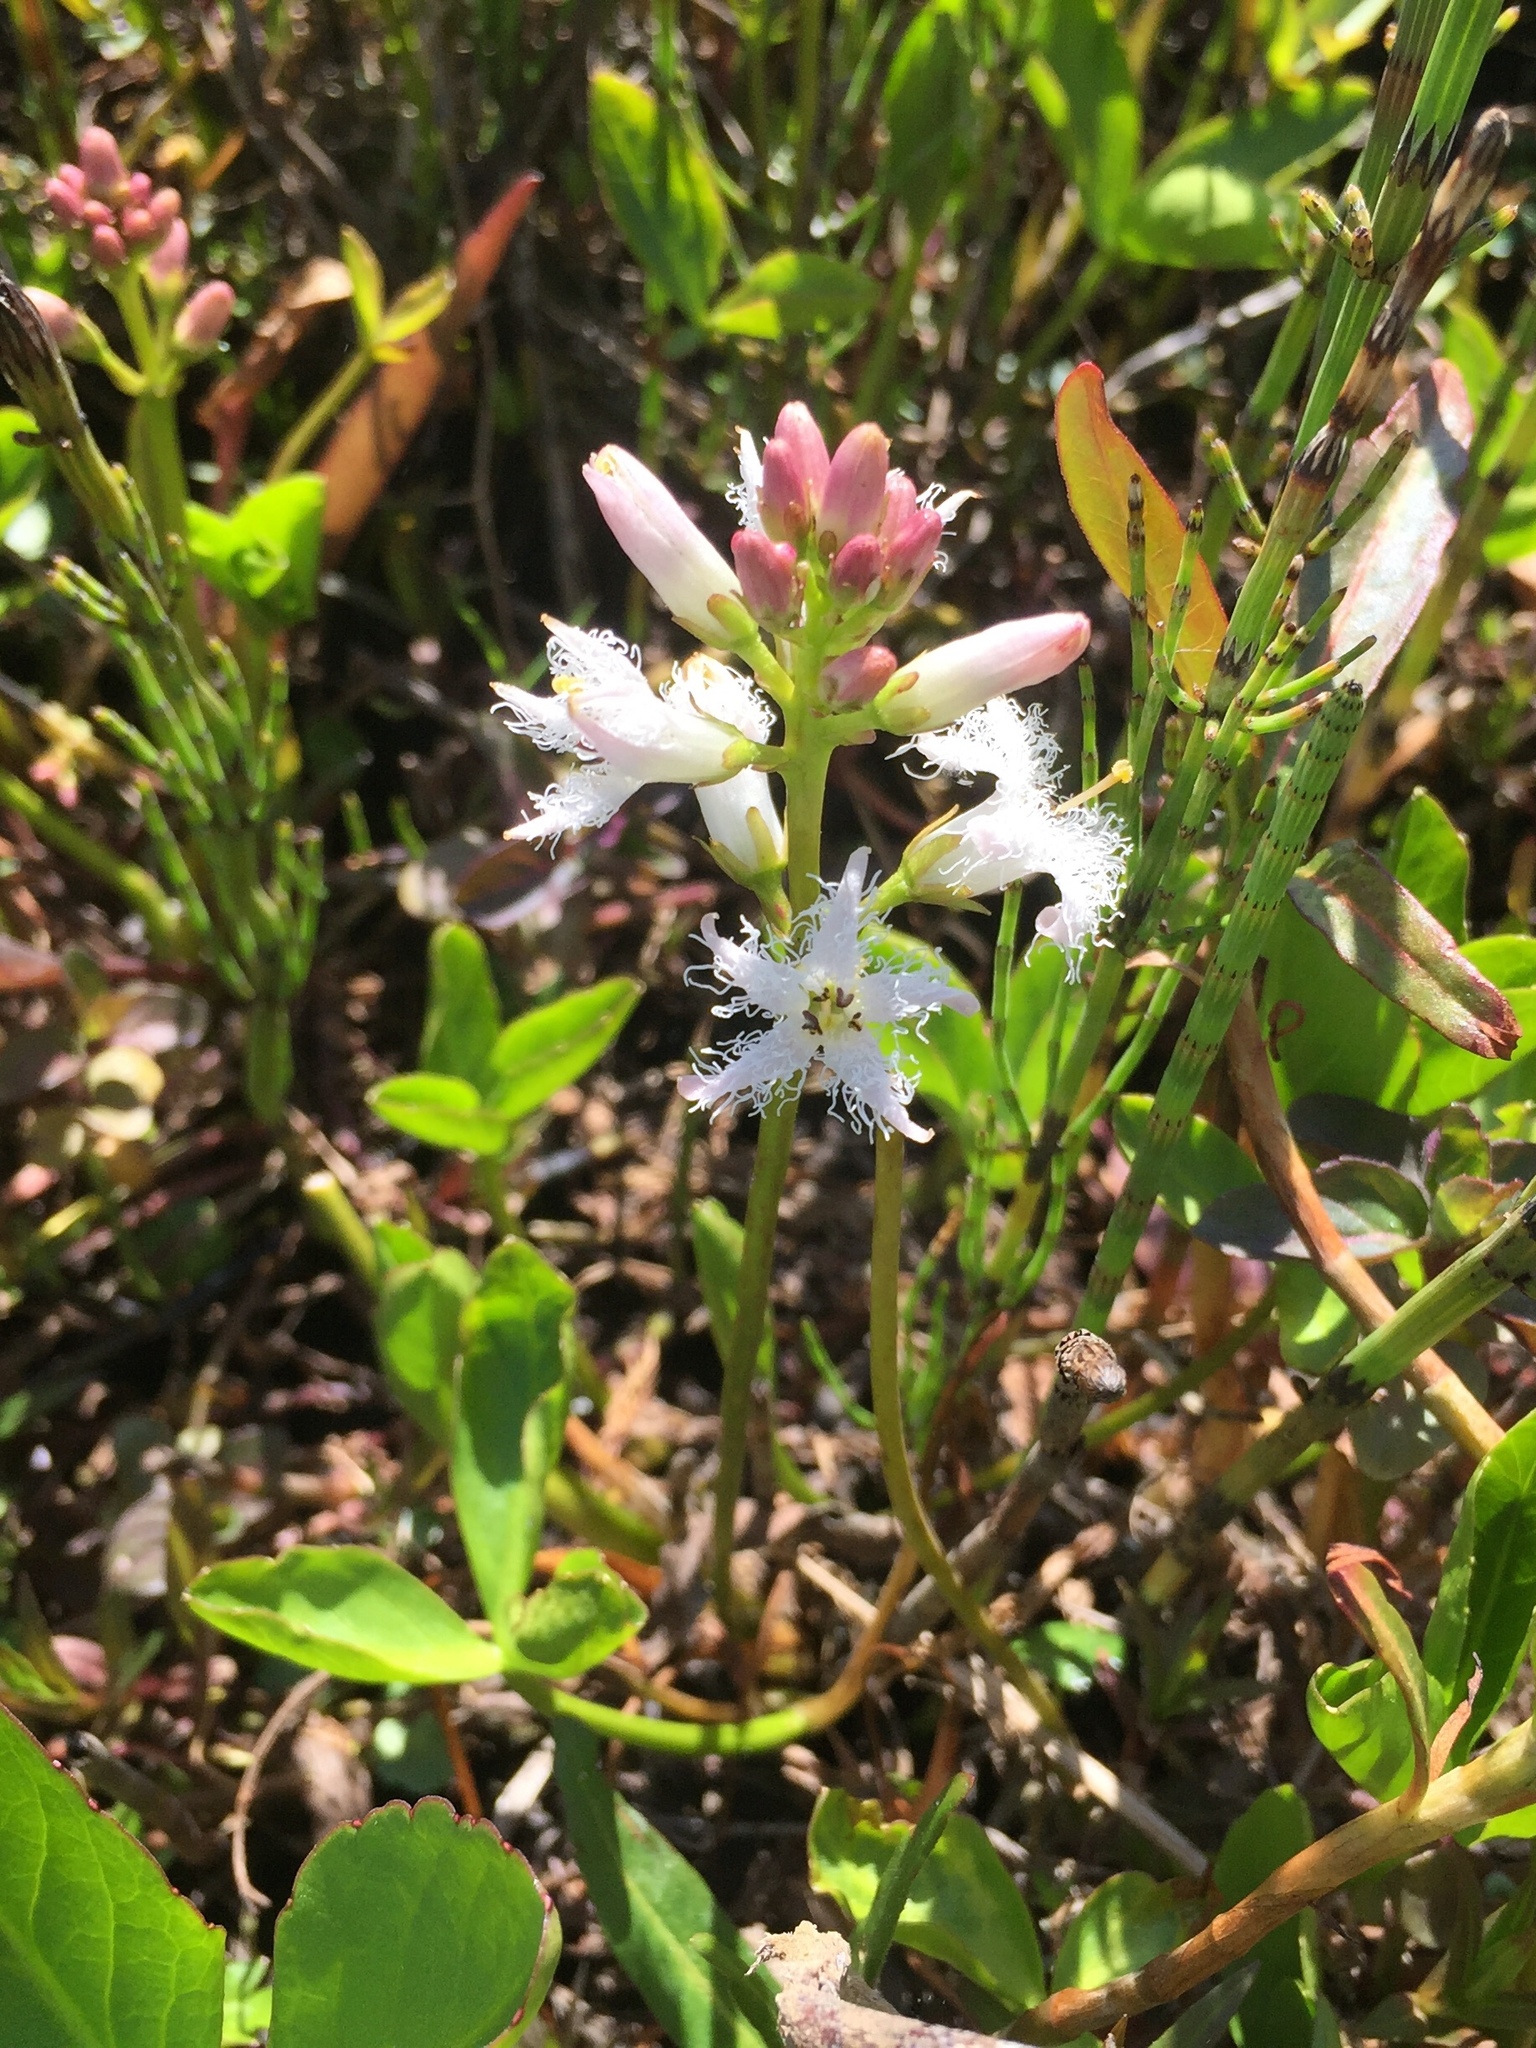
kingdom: Plantae
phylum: Tracheophyta
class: Magnoliopsida
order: Asterales
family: Menyanthaceae
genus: Menyanthes
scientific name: Menyanthes trifoliata
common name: Bogbean
